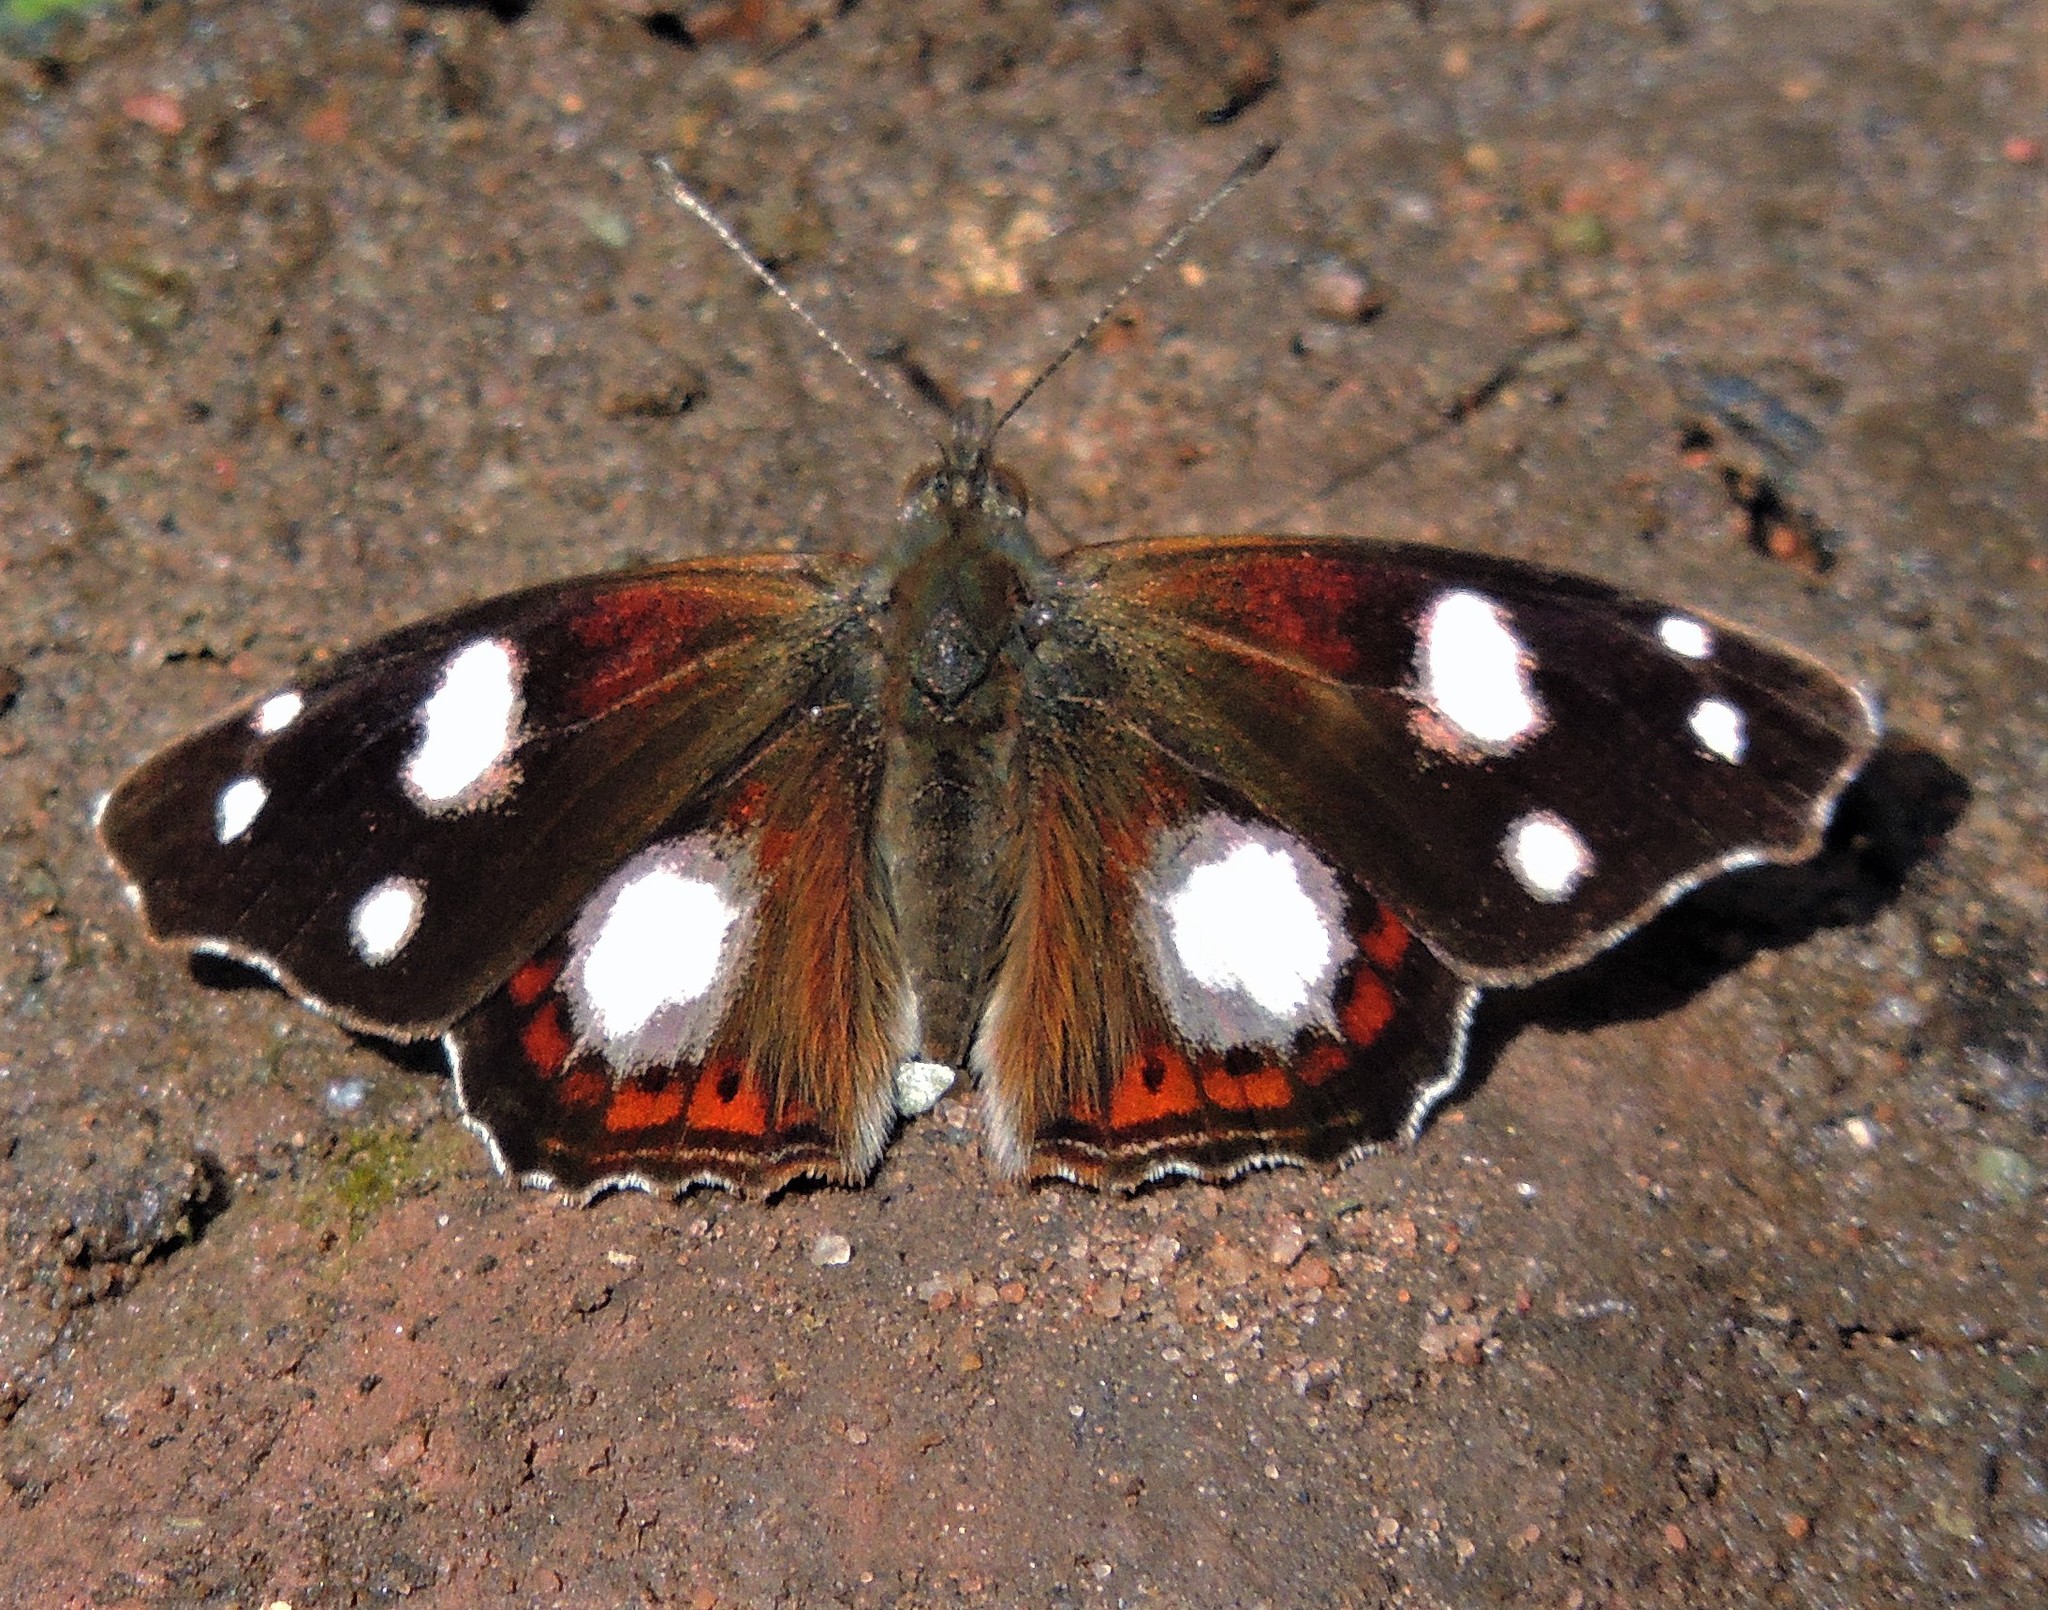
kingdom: Animalia
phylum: Arthropoda
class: Insecta
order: Lepidoptera
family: Nymphalidae
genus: Cybdelis
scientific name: Cybdelis
